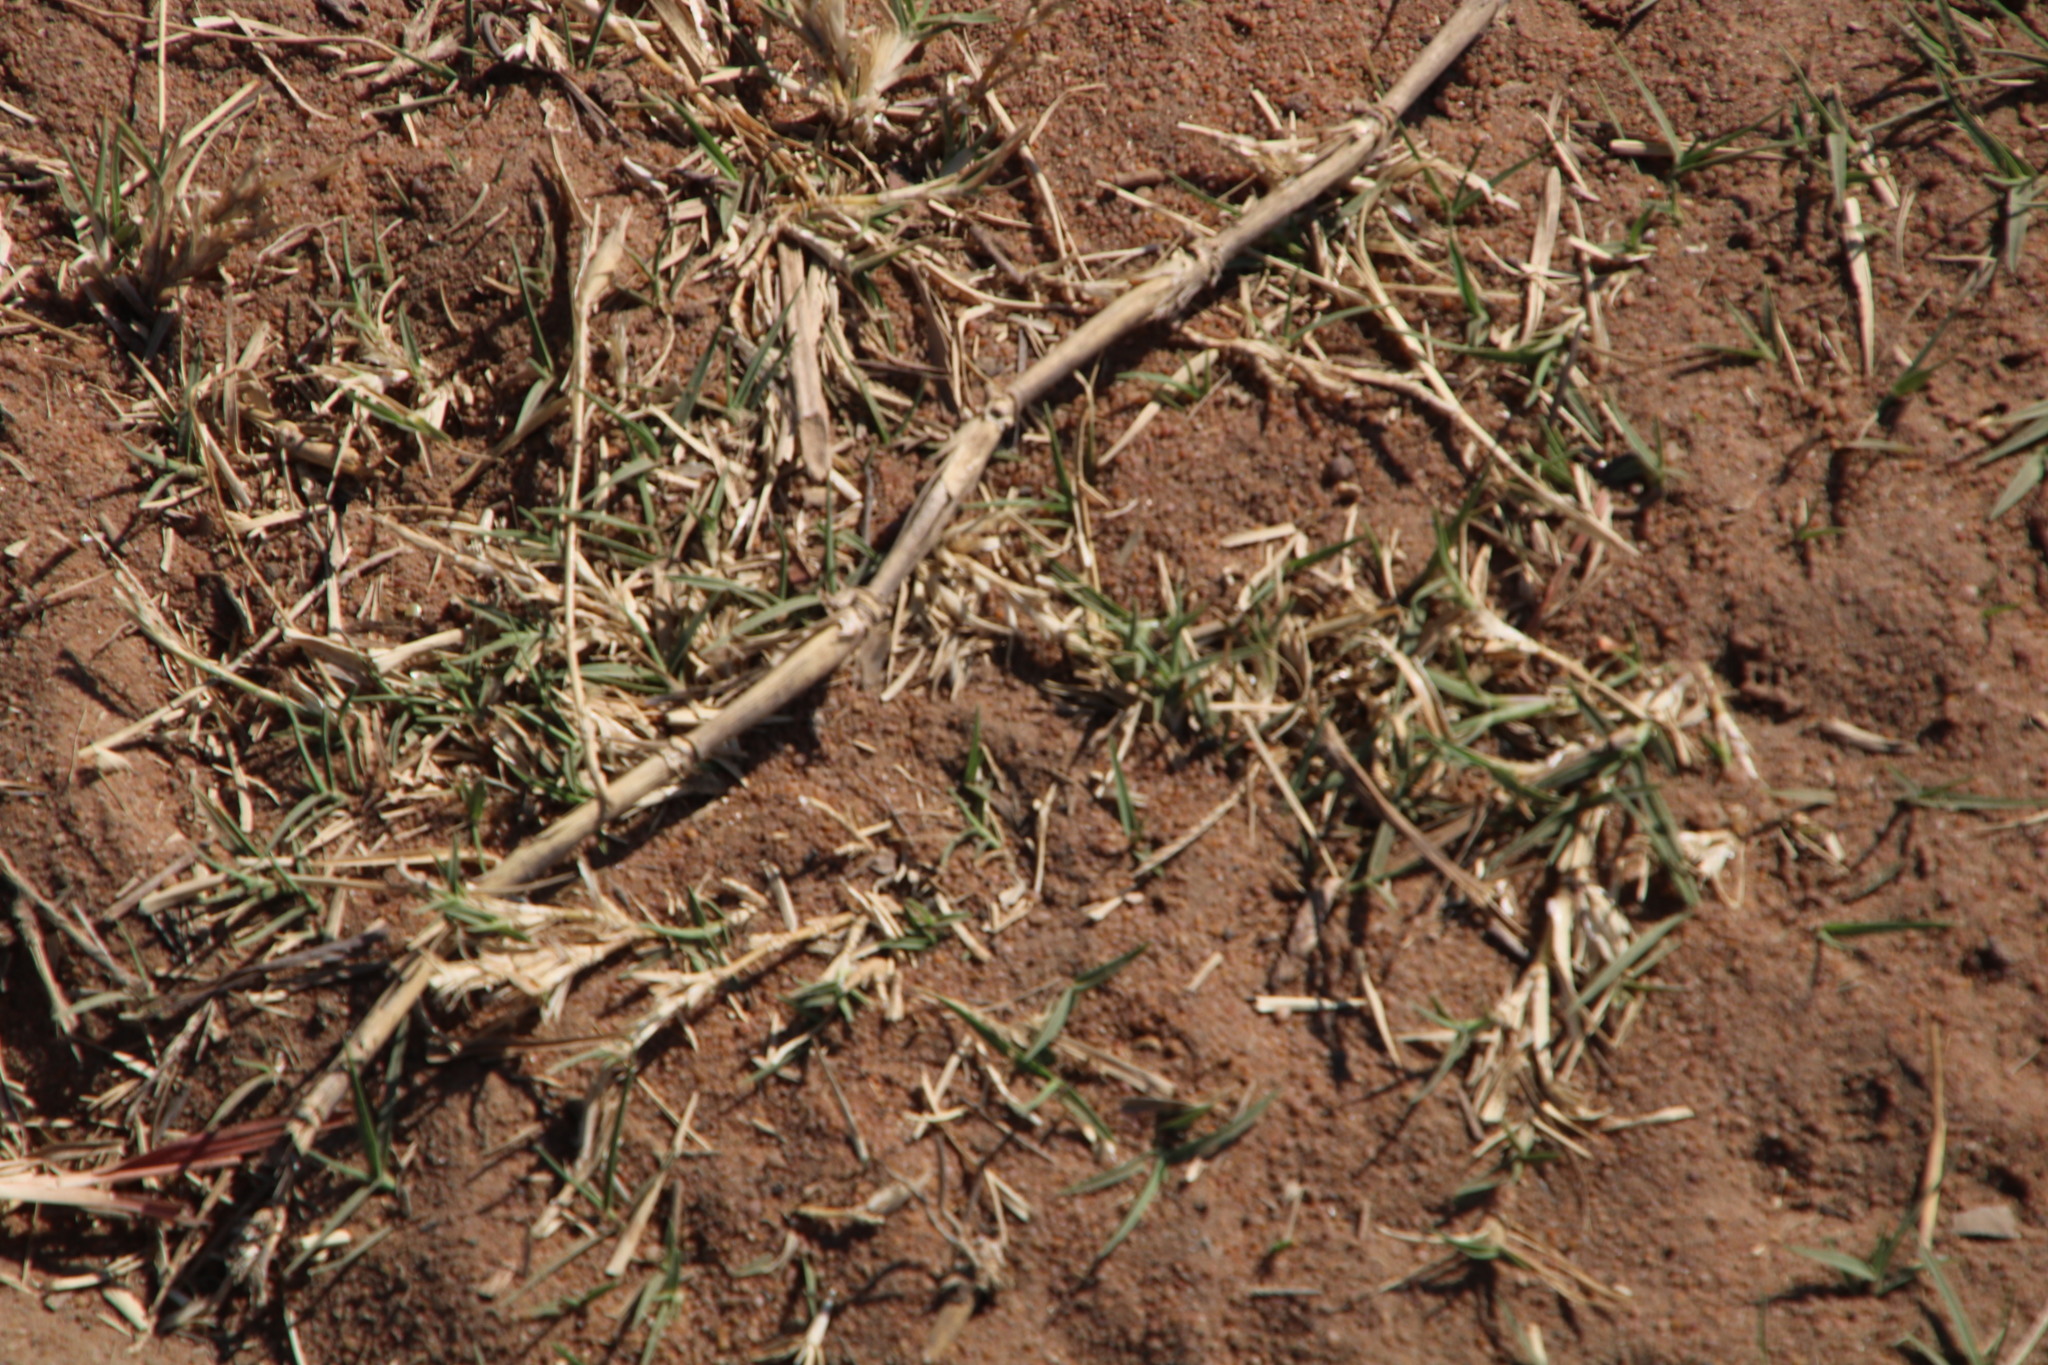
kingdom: Plantae
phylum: Tracheophyta
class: Liliopsida
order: Poales
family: Poaceae
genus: Cynodon
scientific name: Cynodon dactylon
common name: Bermuda grass
